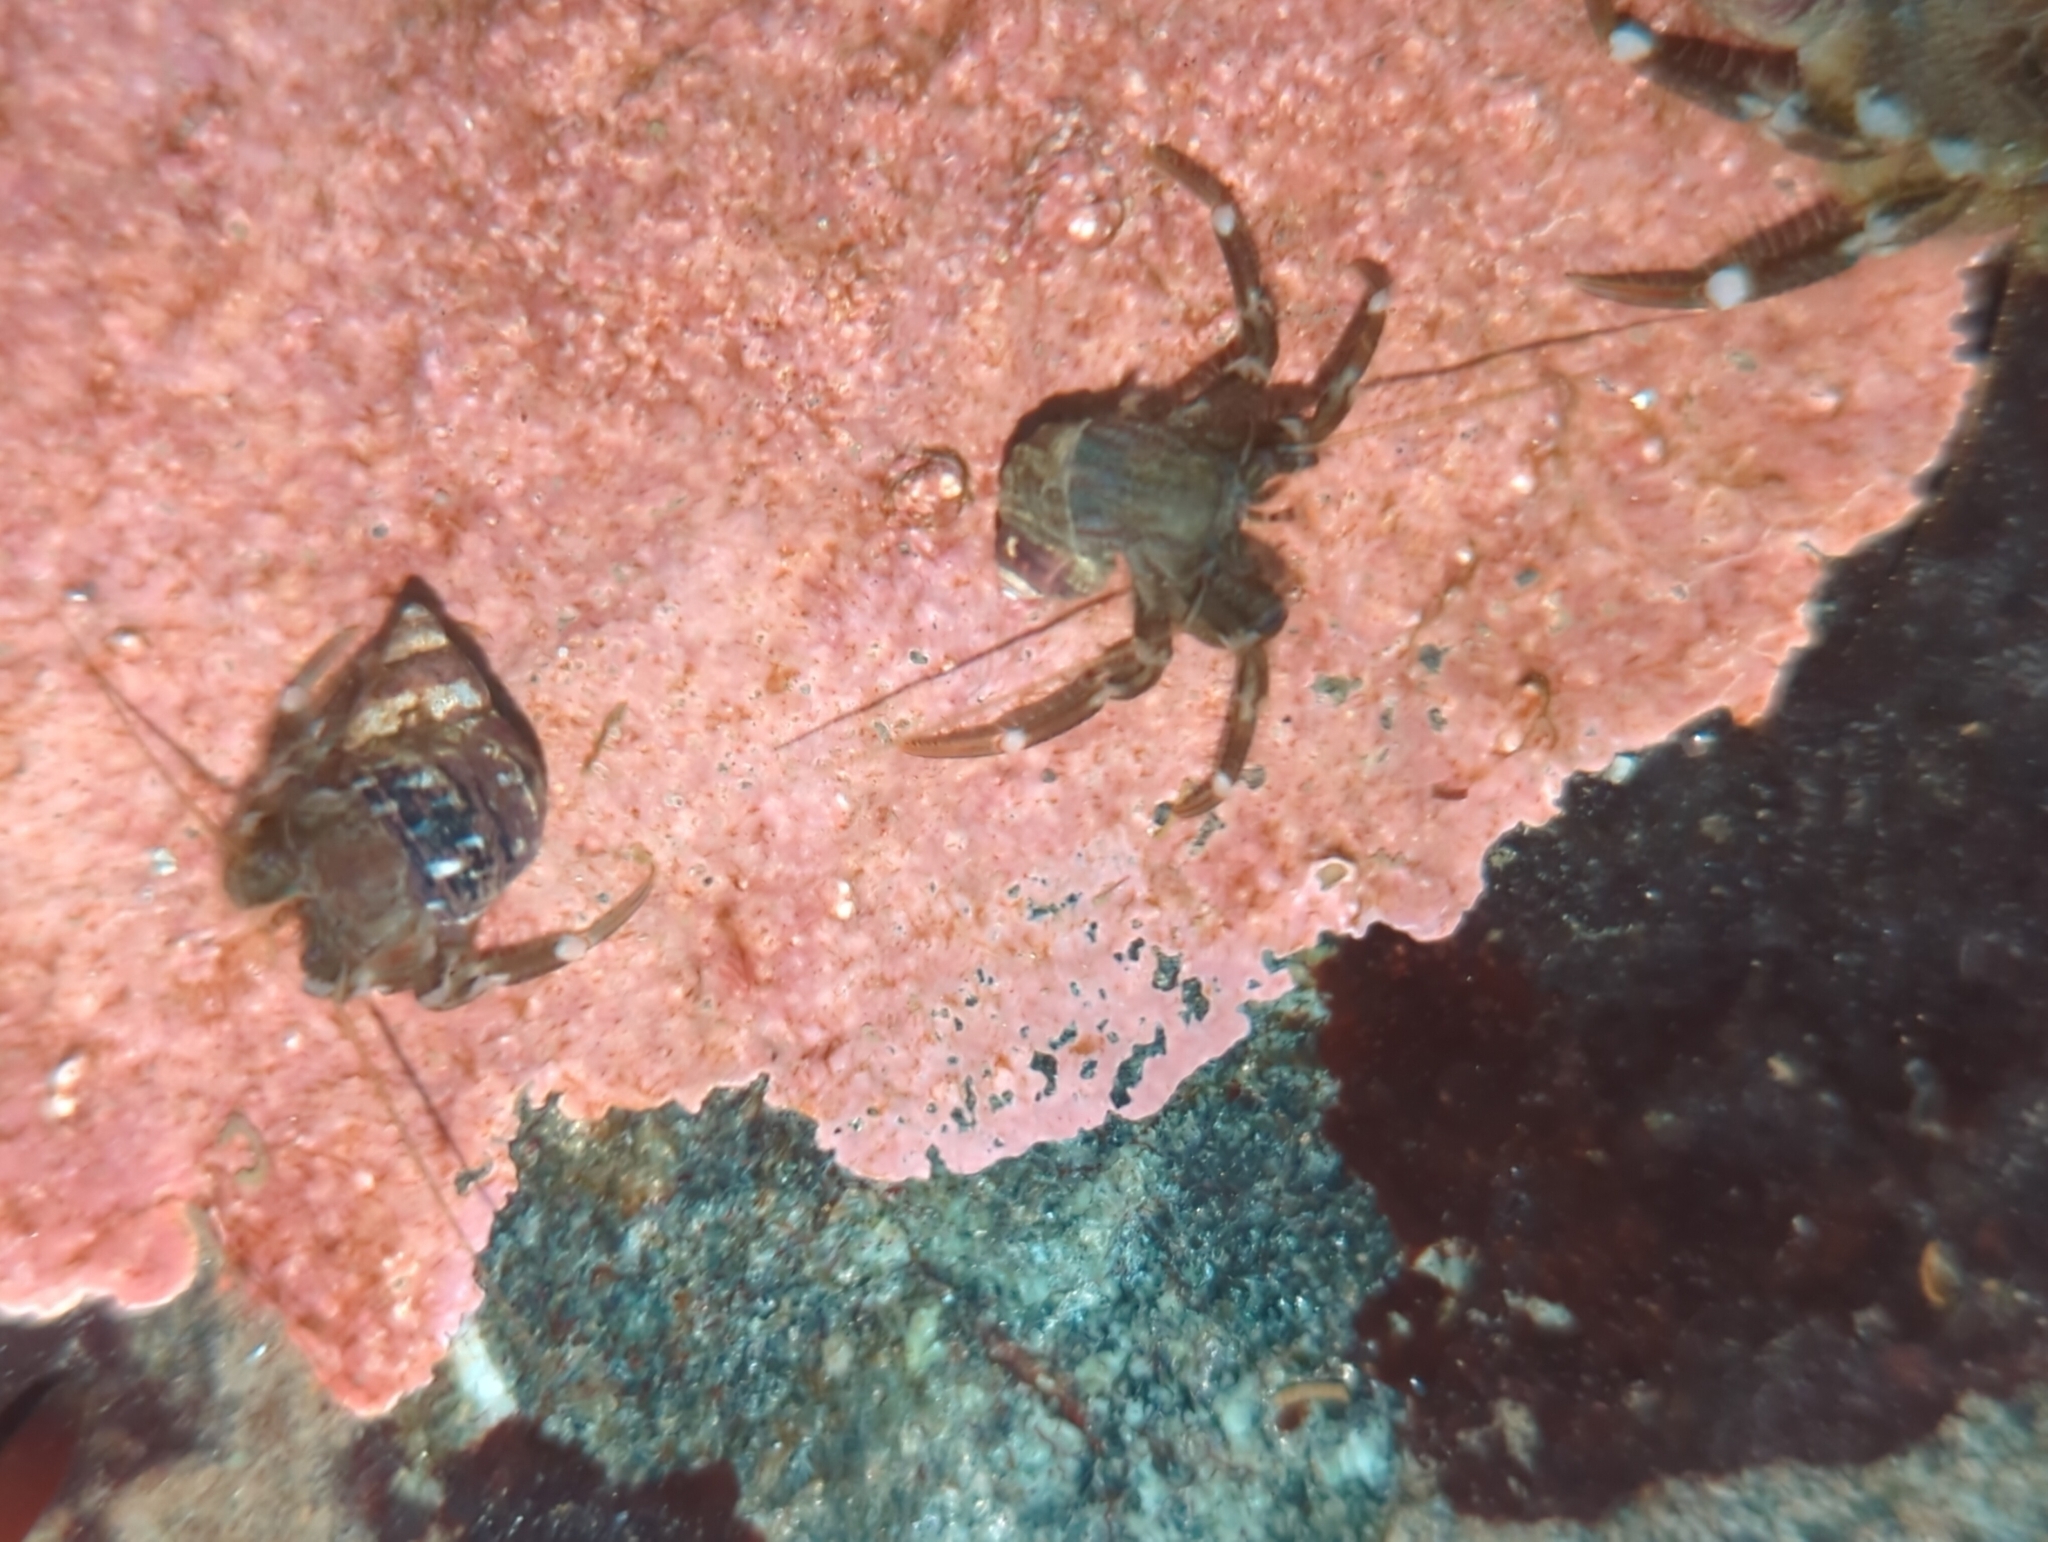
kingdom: Animalia
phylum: Arthropoda
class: Malacostraca
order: Decapoda
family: Paguridae
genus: Pagurus
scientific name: Pagurus hirsutiusculus
